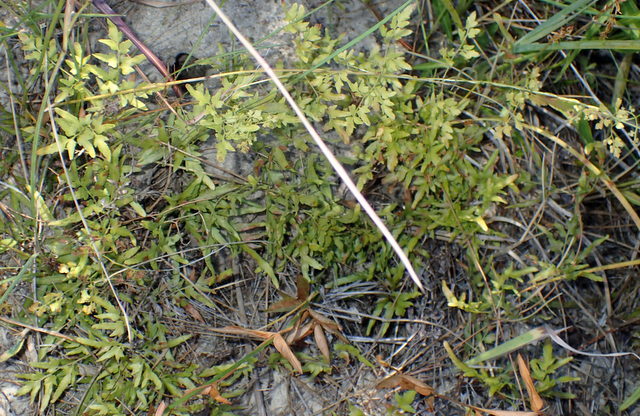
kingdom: Plantae
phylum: Tracheophyta
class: Polypodiopsida
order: Schizaeales
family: Lygodiaceae
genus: Lygodium
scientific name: Lygodium japonicum
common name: Japanese climbing fern
